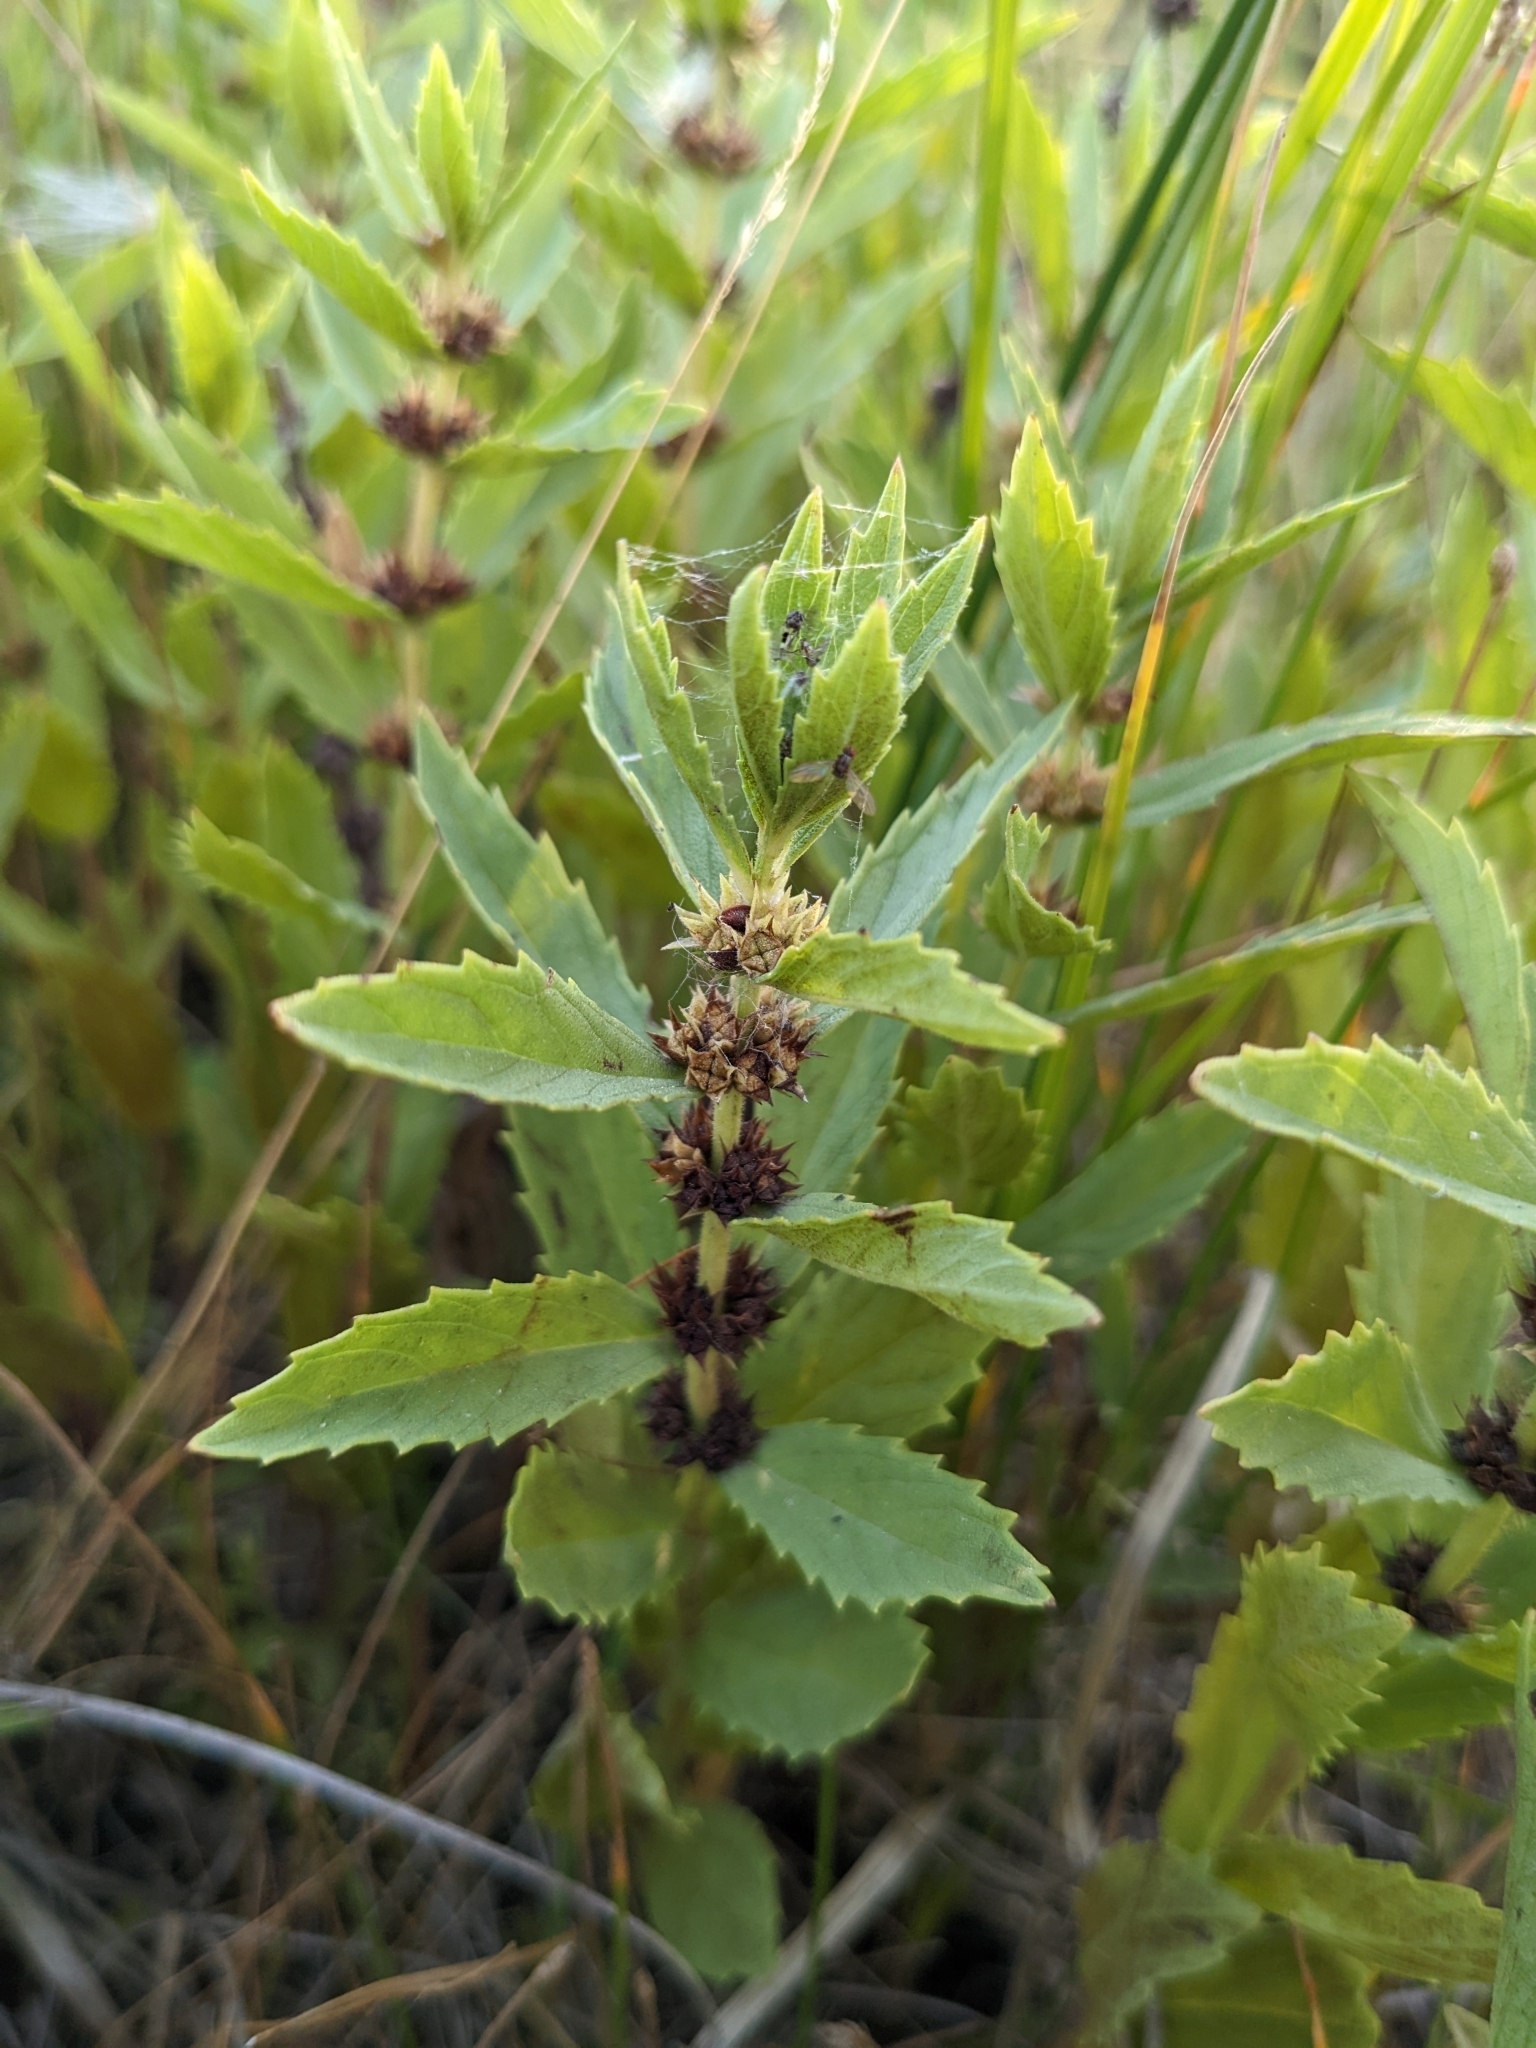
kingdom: Plantae
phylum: Tracheophyta
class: Magnoliopsida
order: Lamiales
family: Lamiaceae
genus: Mentha
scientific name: Mentha canadensis
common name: American corn mint
